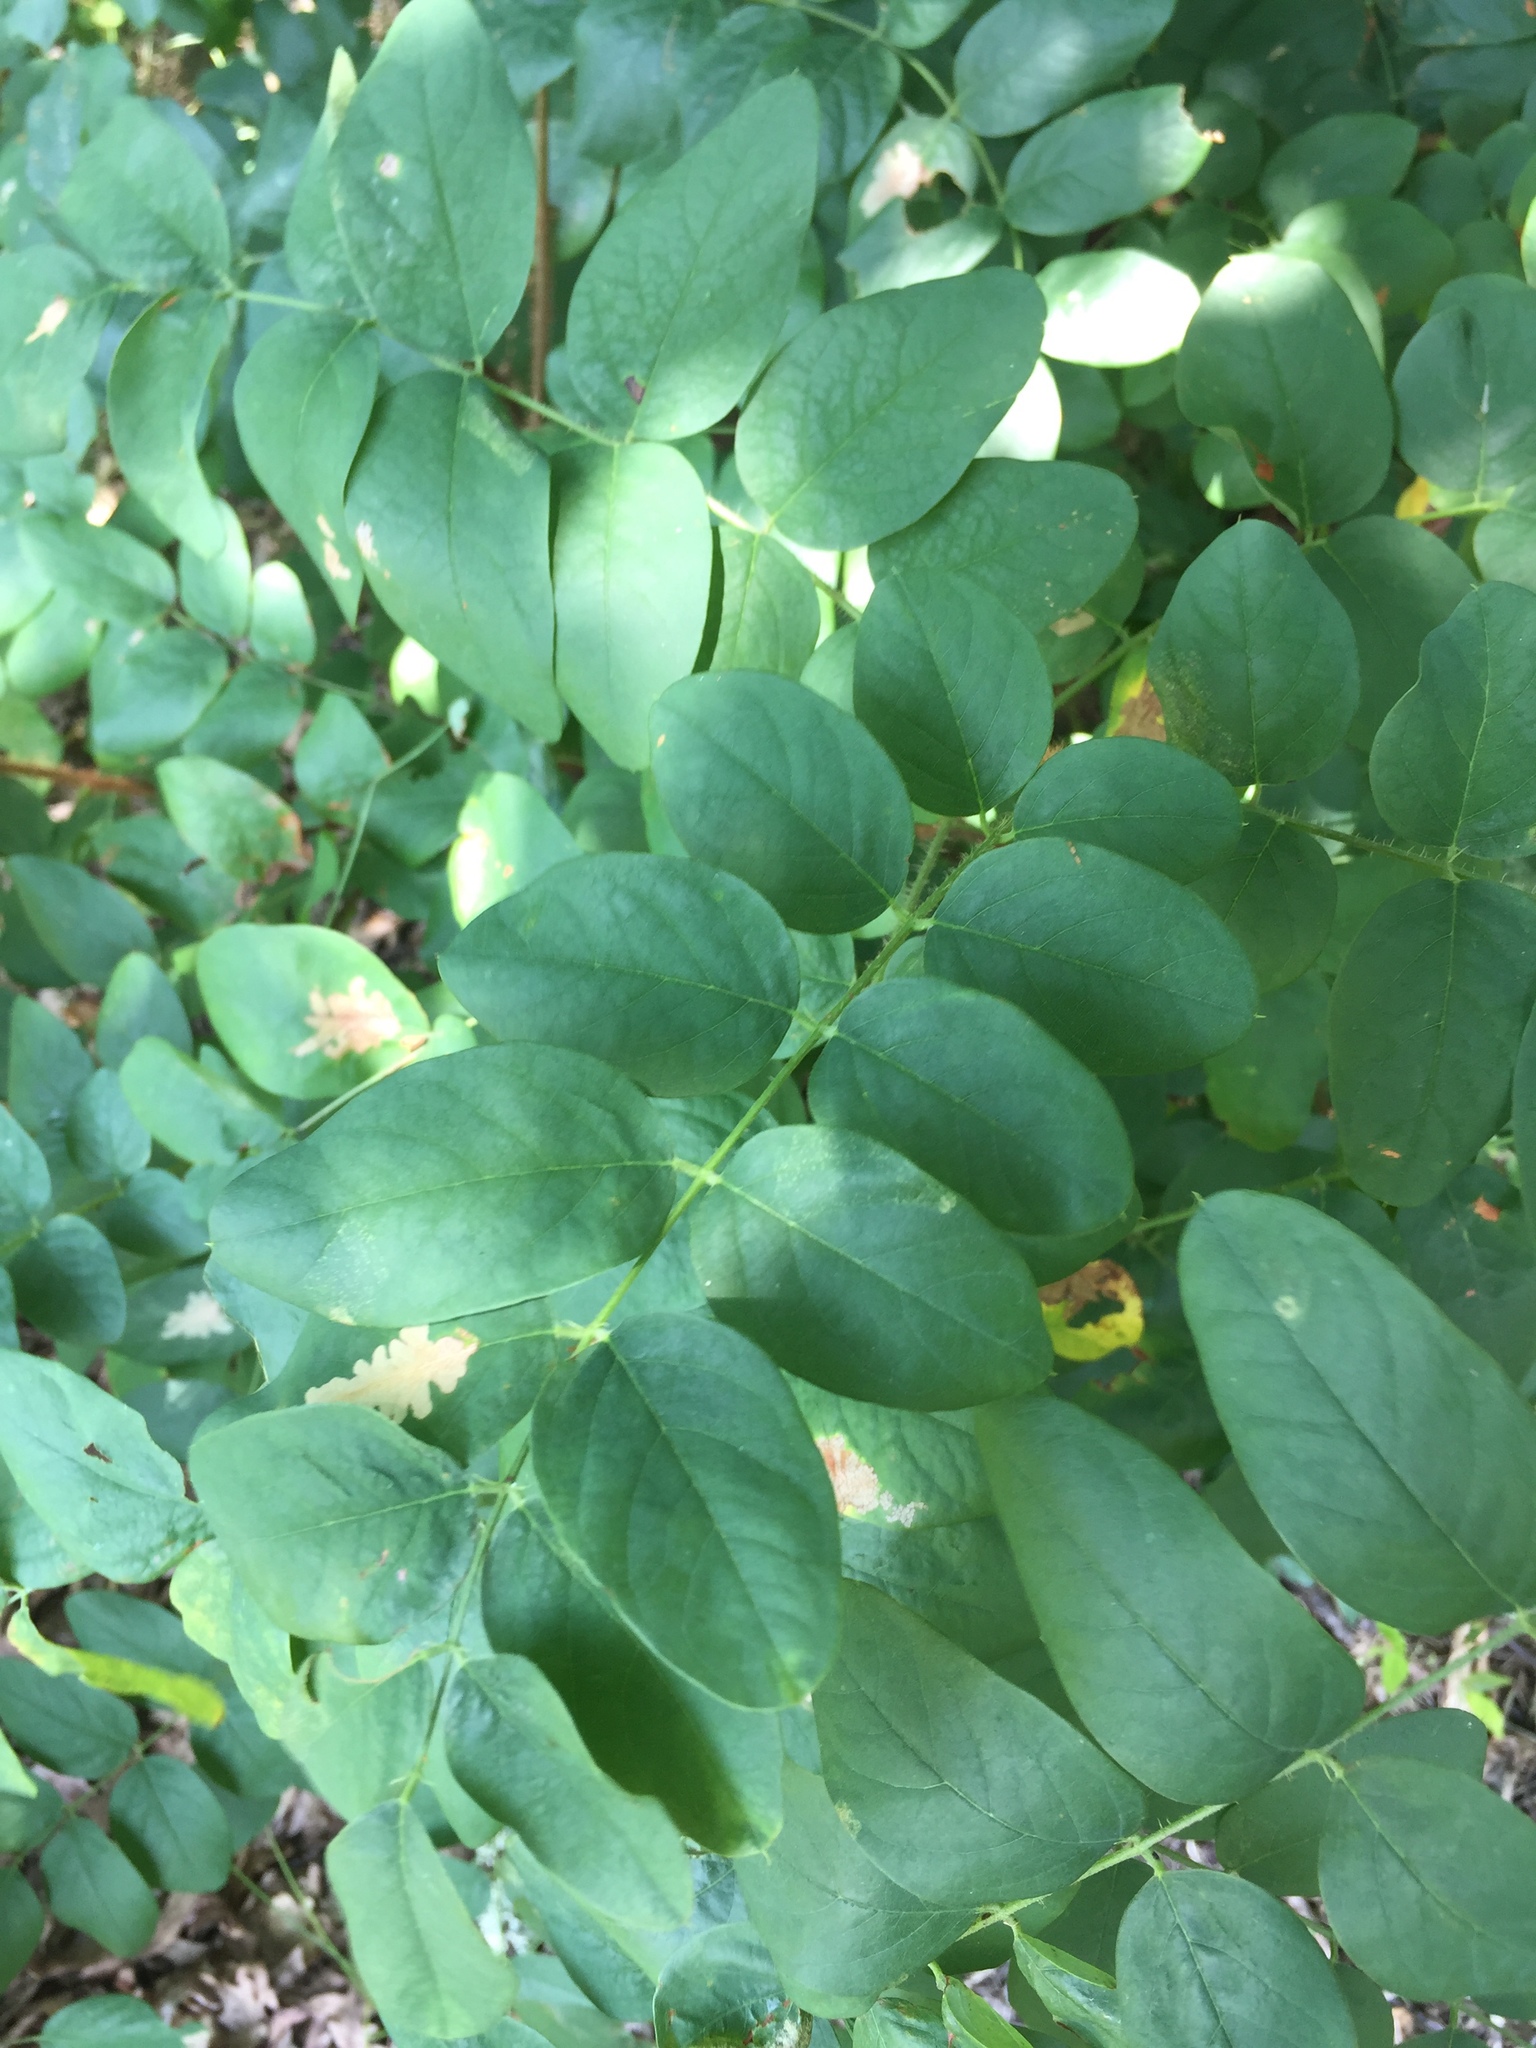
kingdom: Plantae
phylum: Tracheophyta
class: Magnoliopsida
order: Fabales
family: Fabaceae
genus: Robinia
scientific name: Robinia hispida
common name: Bristly locust
